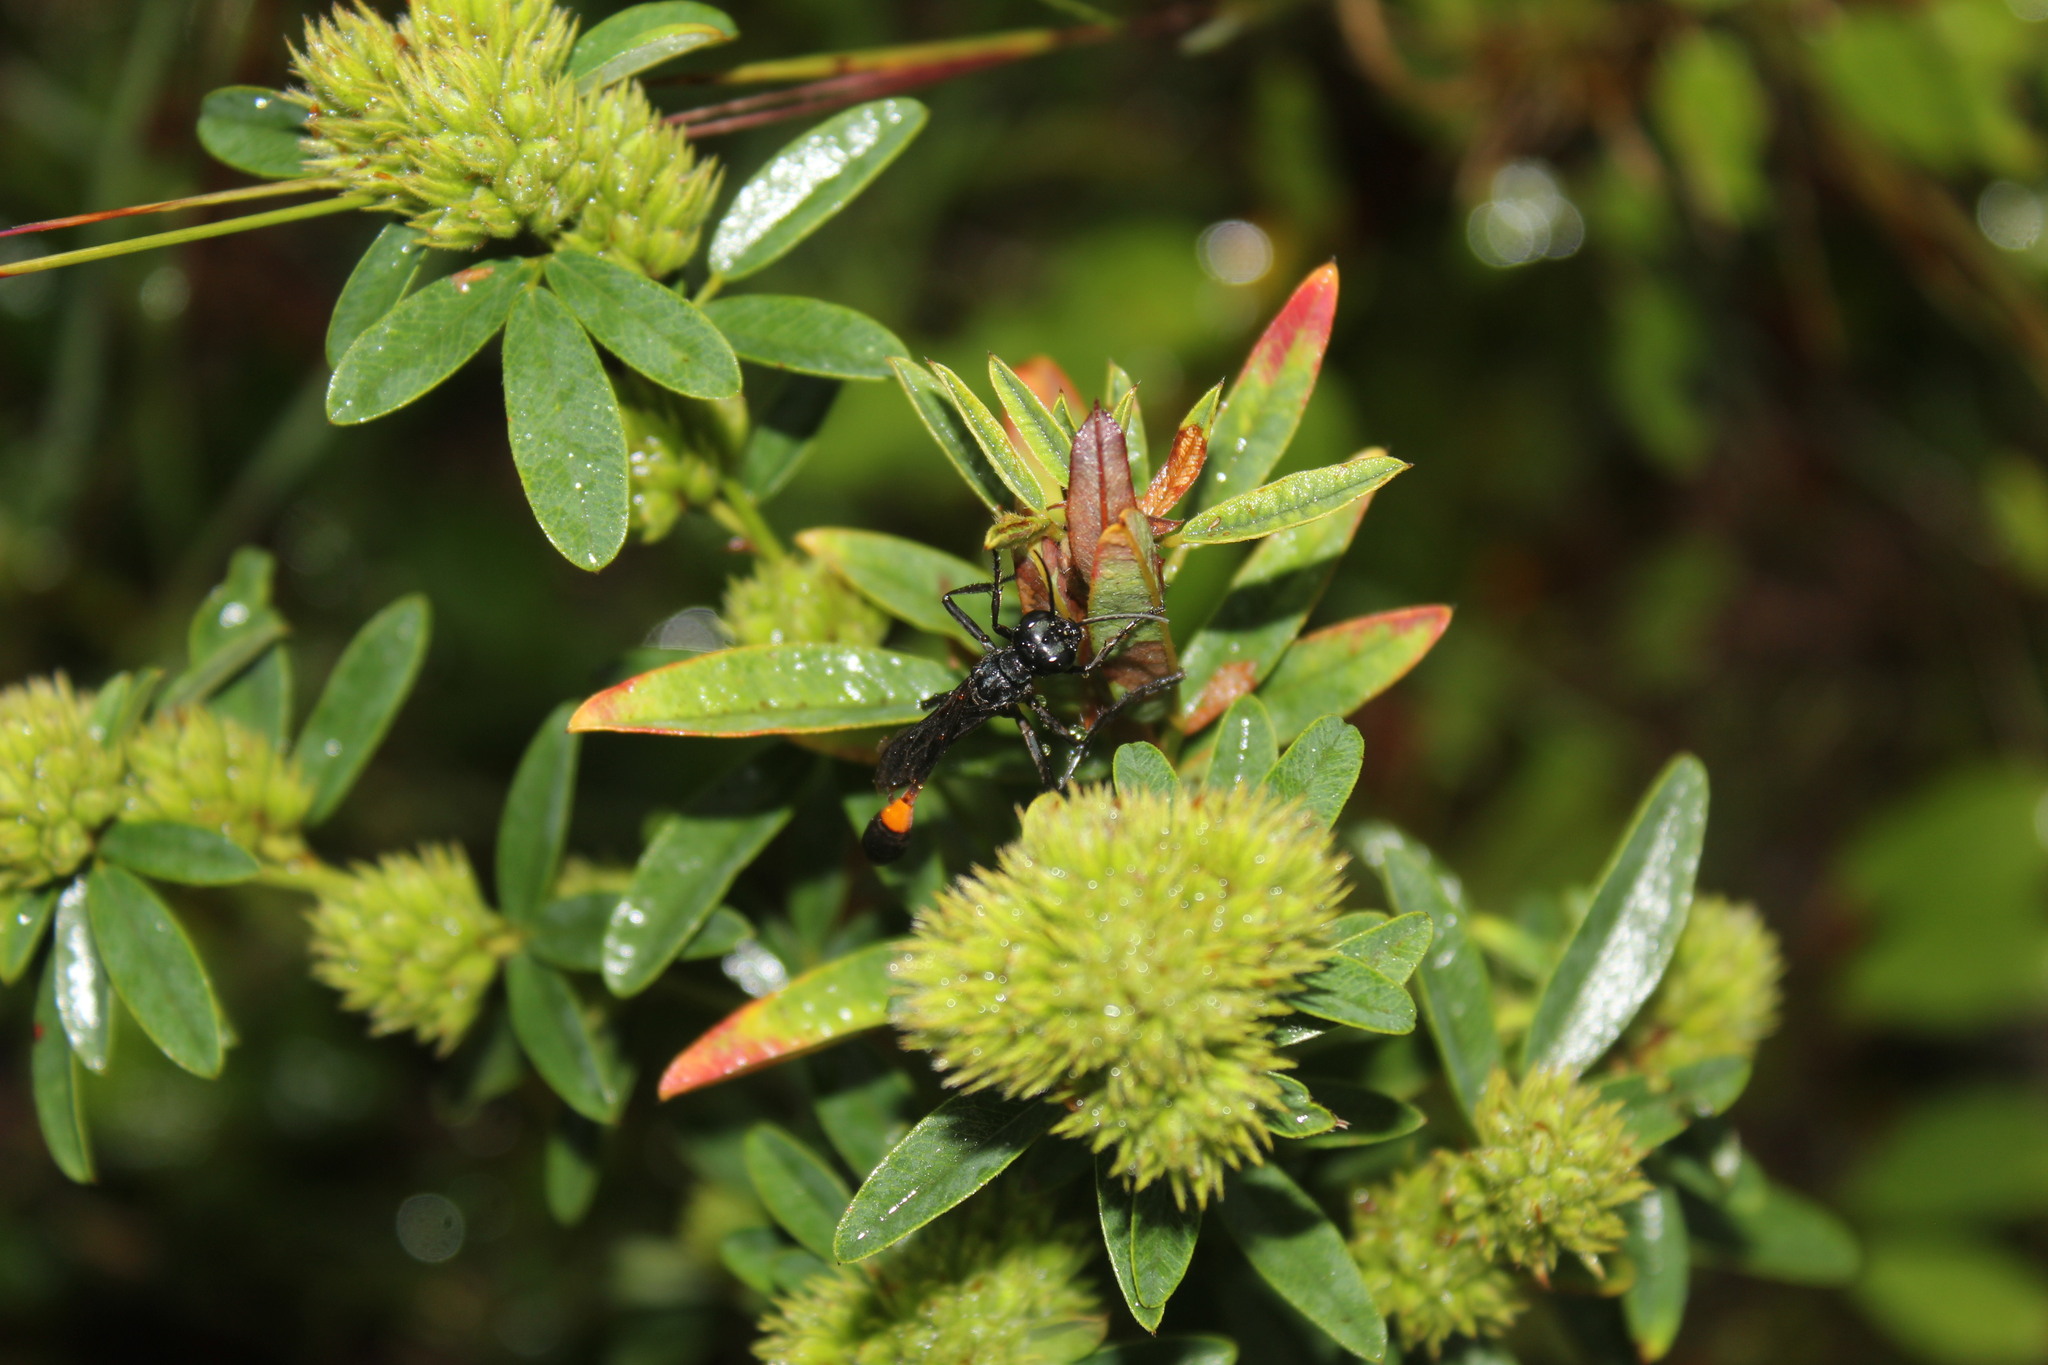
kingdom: Plantae
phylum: Tracheophyta
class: Magnoliopsida
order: Fabales
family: Fabaceae
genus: Lespedeza
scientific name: Lespedeza capitata
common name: Dusty clover
